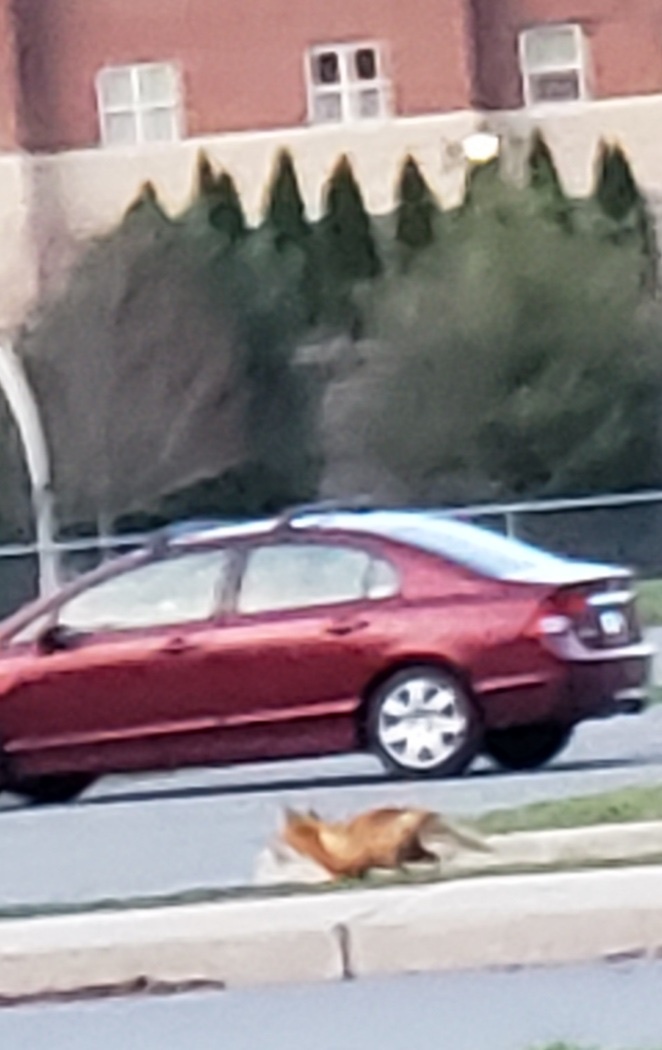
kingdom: Animalia
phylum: Chordata
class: Mammalia
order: Carnivora
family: Canidae
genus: Vulpes
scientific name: Vulpes vulpes
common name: Red fox
